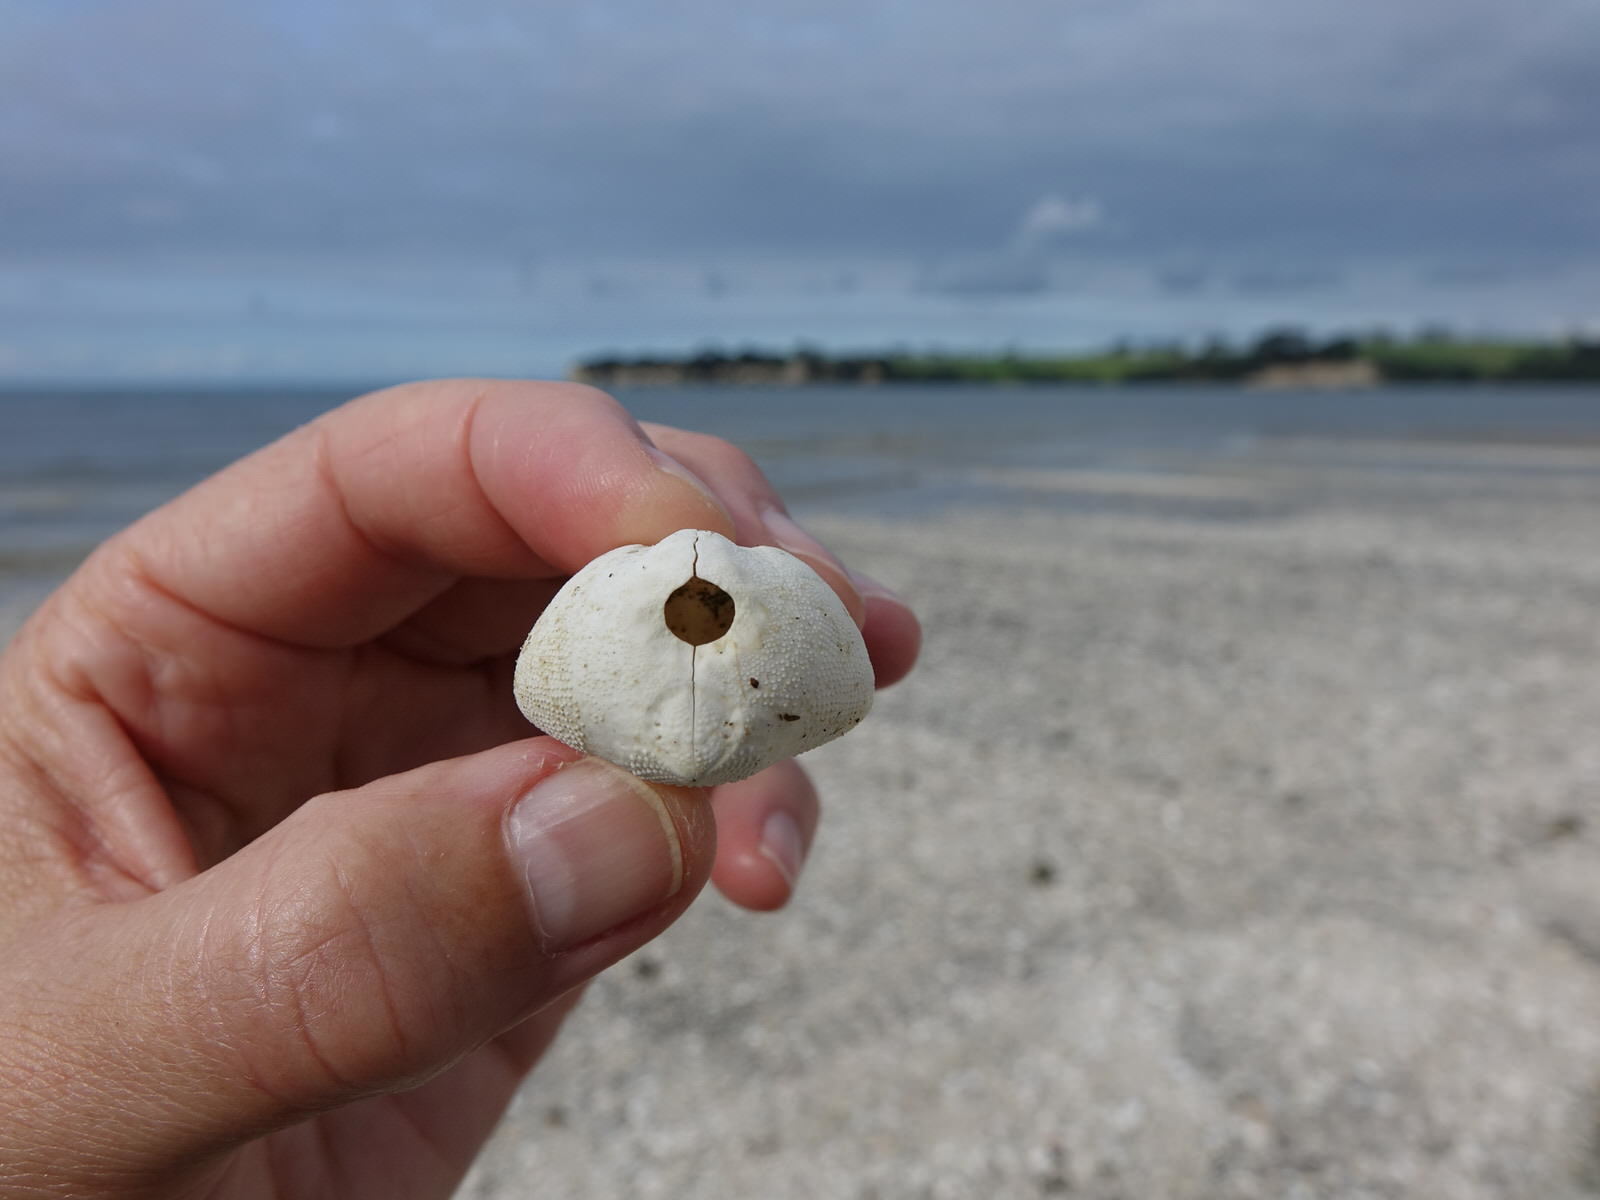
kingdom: Animalia
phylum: Echinodermata
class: Echinoidea
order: Spatangoida
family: Loveniidae
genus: Echinocardium
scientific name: Echinocardium cordatum
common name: Heart-urchin
